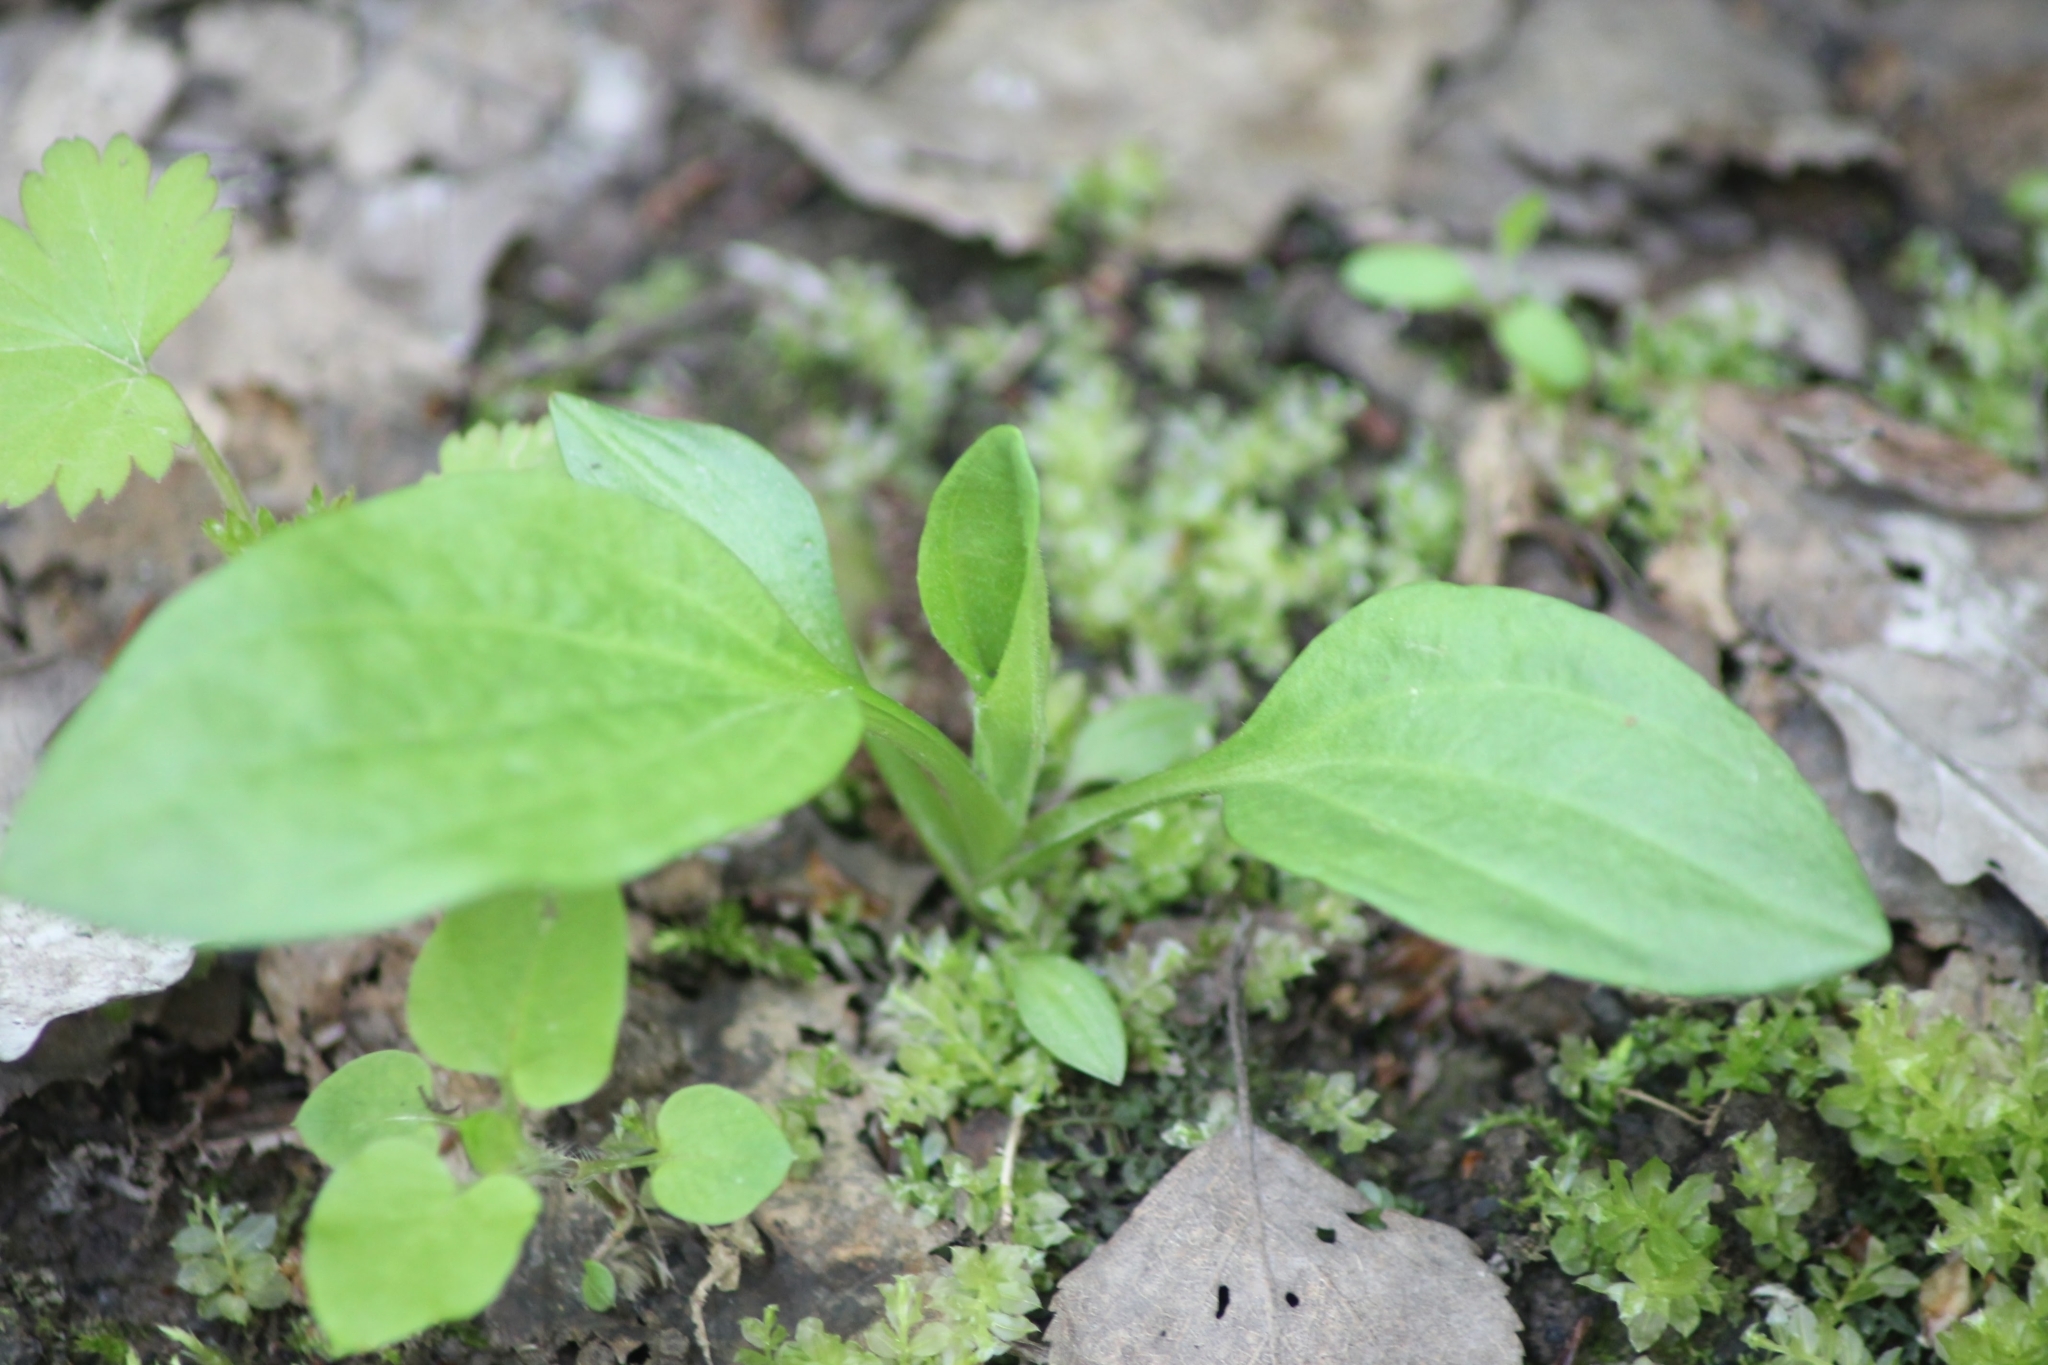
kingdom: Plantae
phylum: Tracheophyta
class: Magnoliopsida
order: Lamiales
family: Plantaginaceae
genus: Plantago
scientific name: Plantago major
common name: Common plantain
